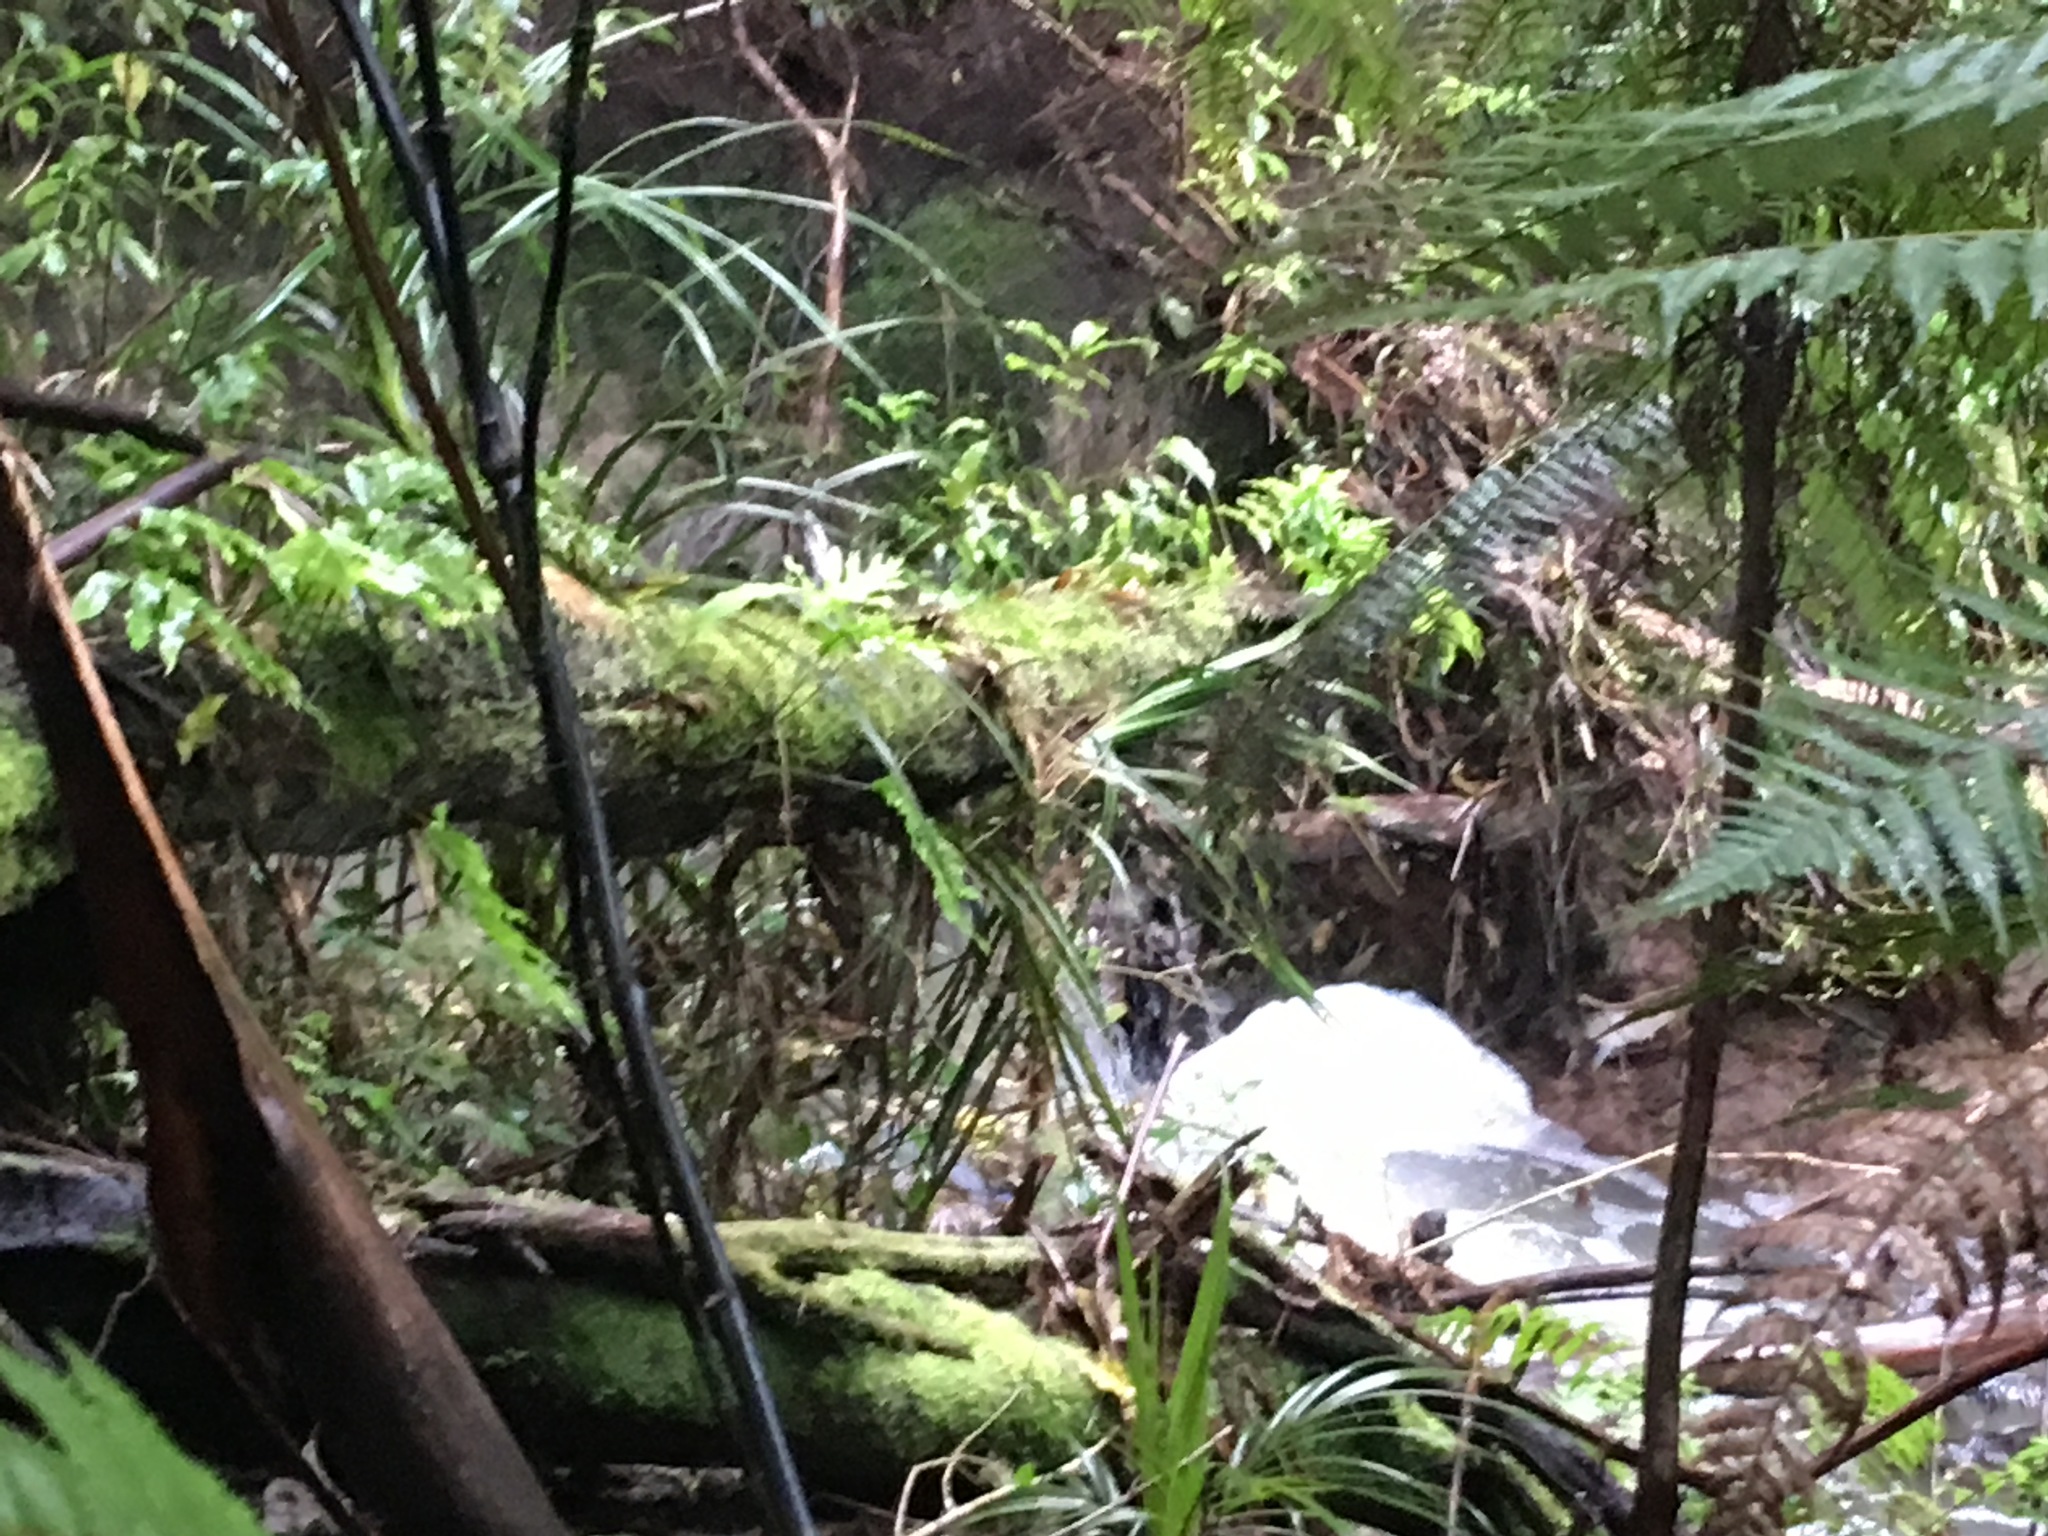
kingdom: Plantae
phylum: Tracheophyta
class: Polypodiopsida
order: Polypodiales
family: Polypodiaceae
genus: Lecanopteris
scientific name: Lecanopteris pustulata
